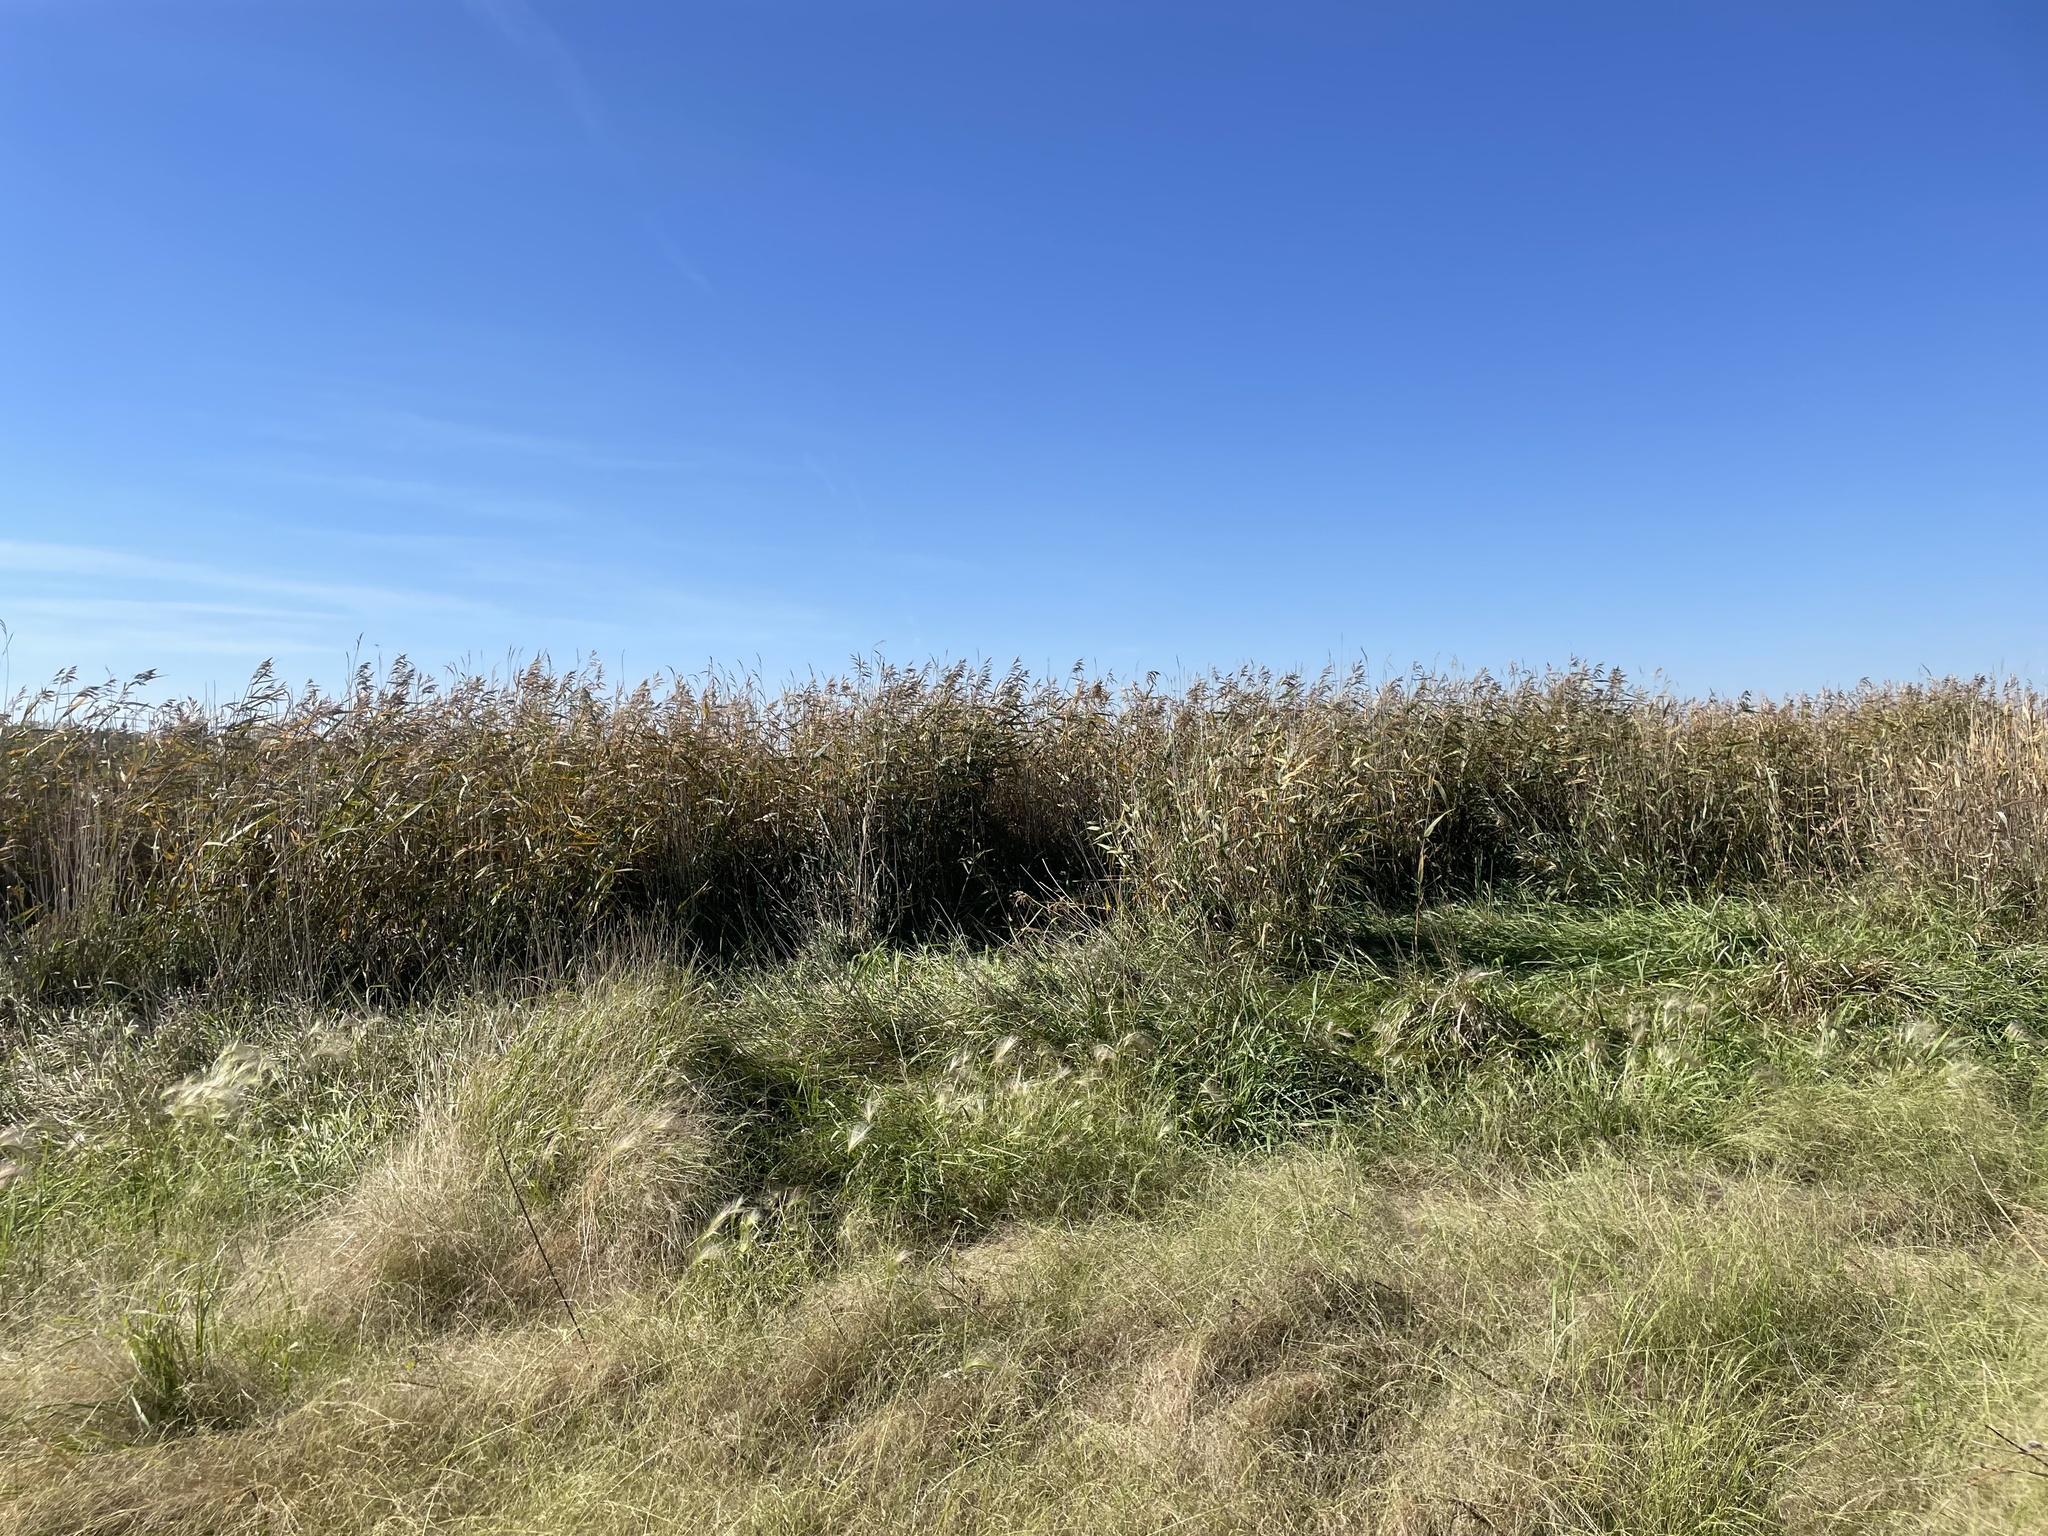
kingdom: Plantae
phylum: Tracheophyta
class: Liliopsida
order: Poales
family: Poaceae
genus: Phragmites
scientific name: Phragmites australis
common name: Common reed
